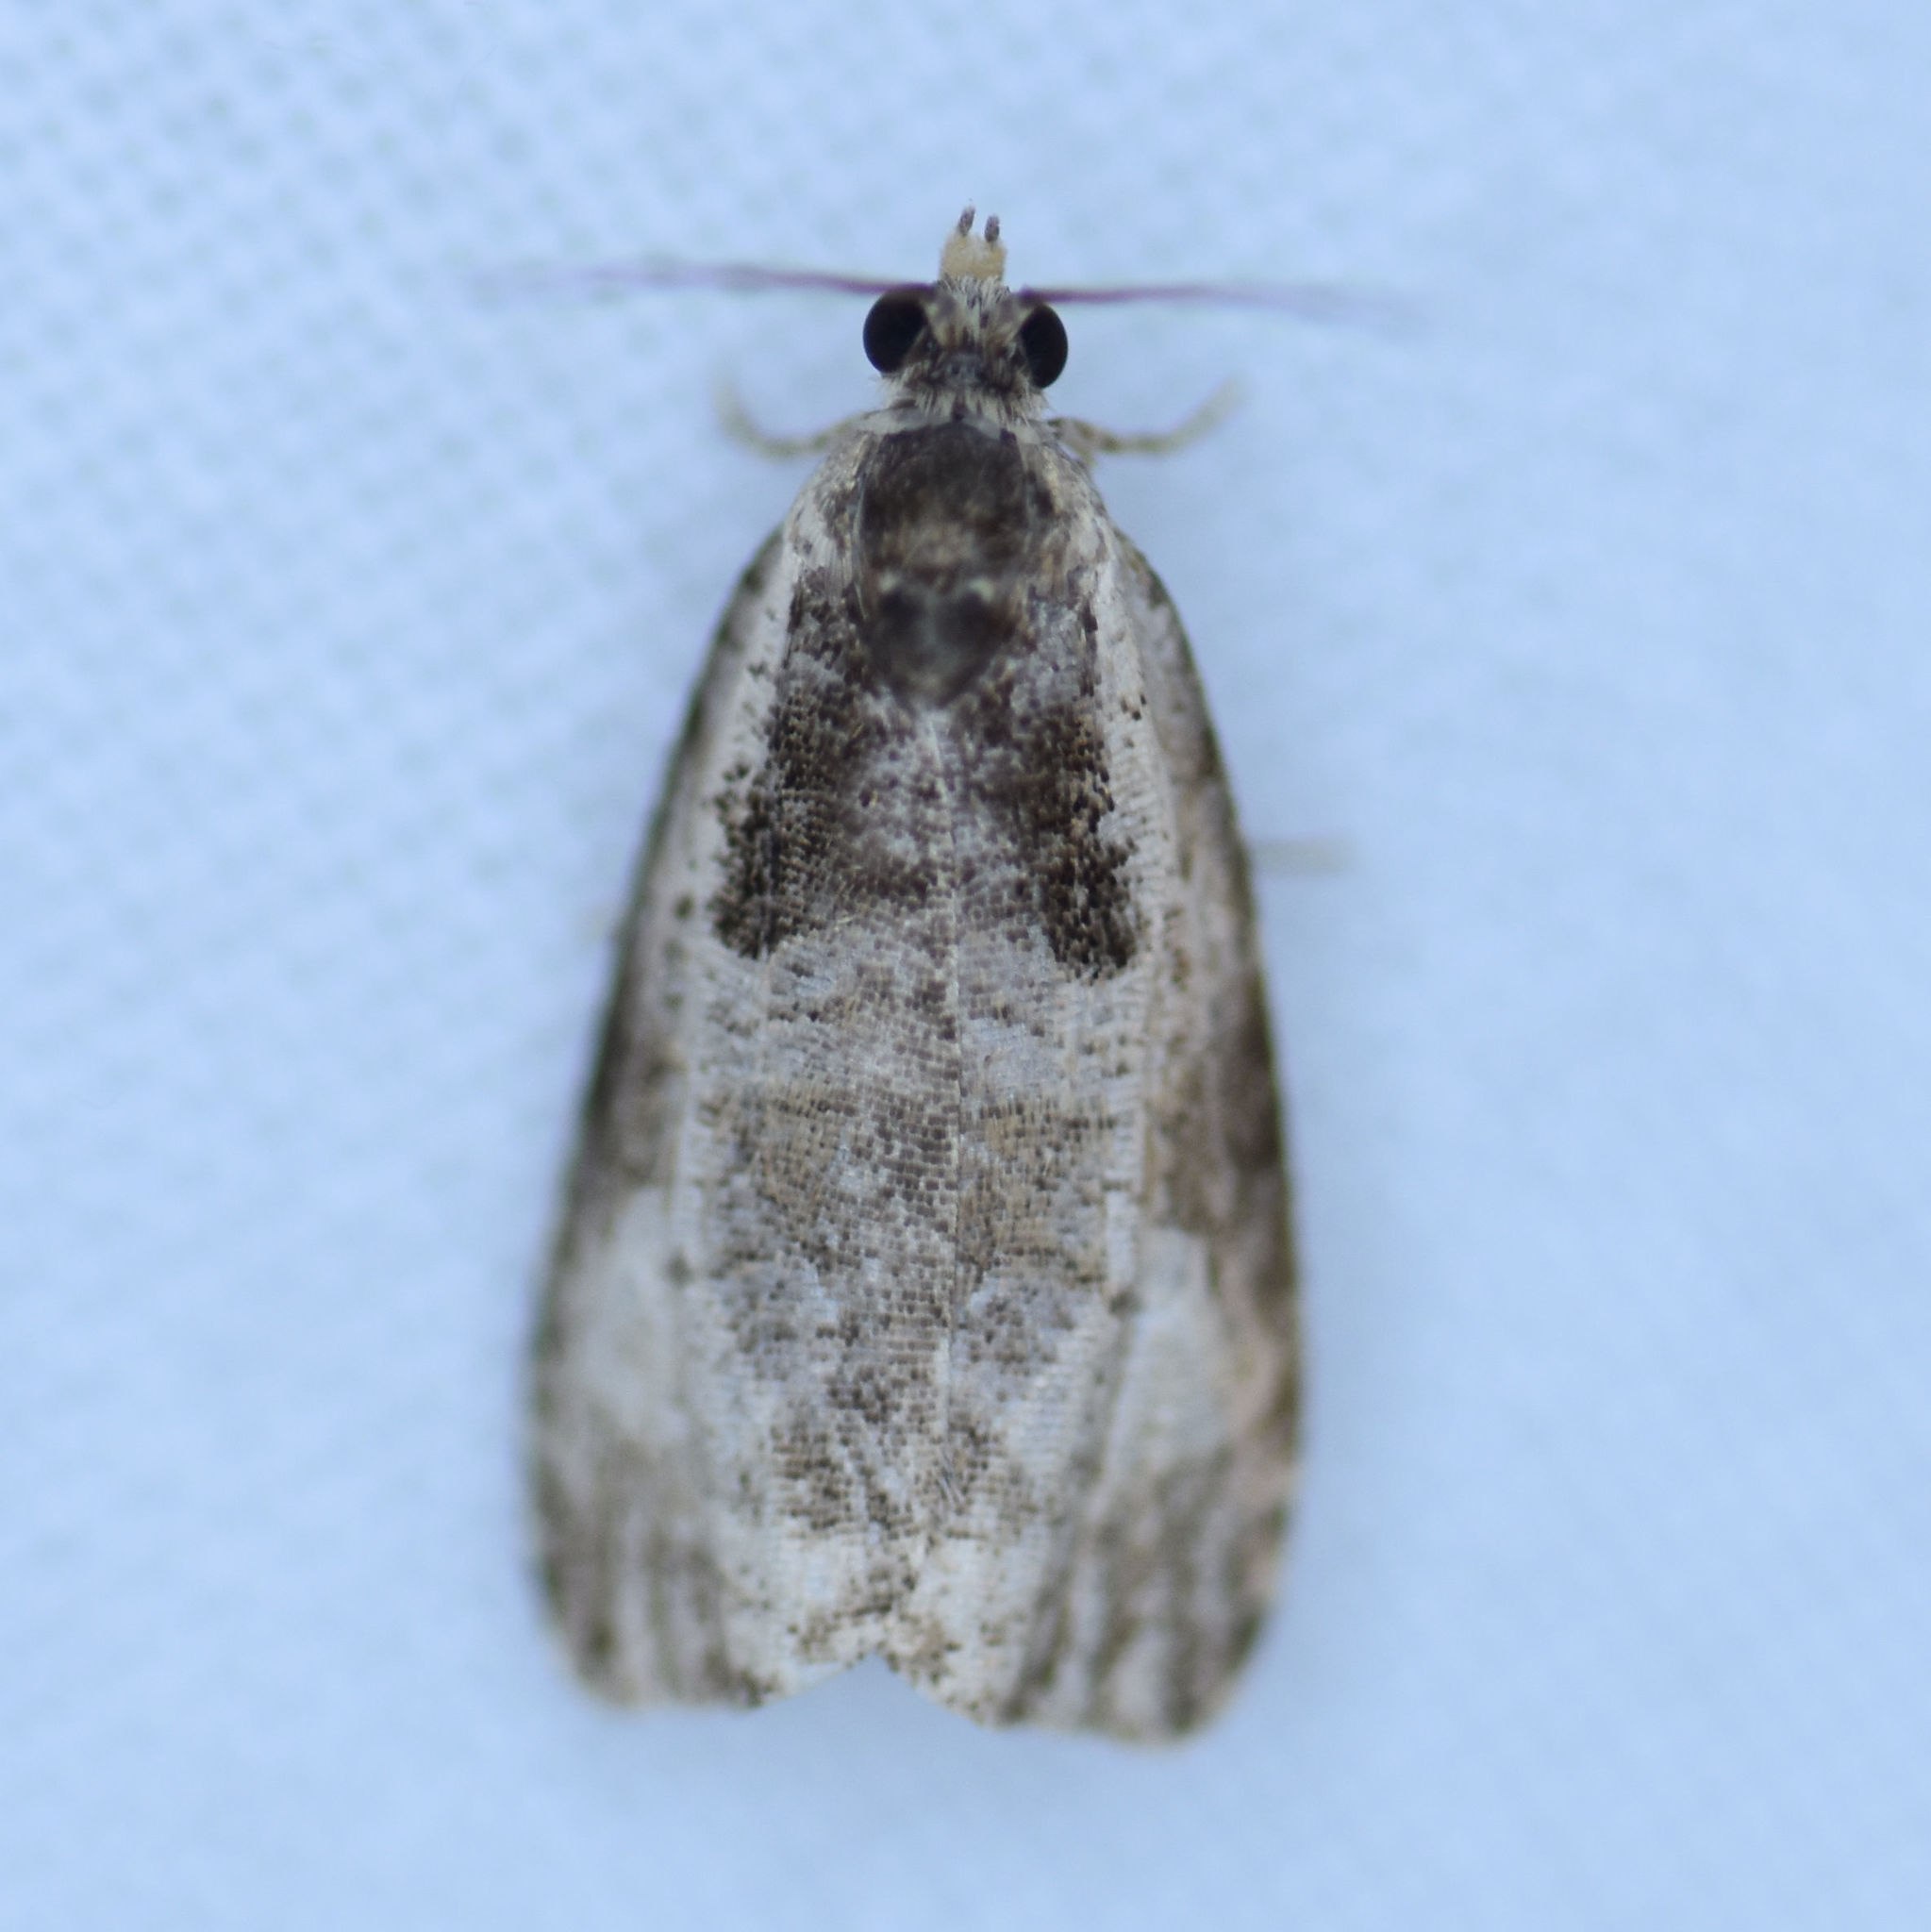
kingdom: Animalia
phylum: Arthropoda
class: Insecta
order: Lepidoptera
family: Tortricidae
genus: Olethreutes
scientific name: Olethreutes malana
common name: Malana leafroller moth
